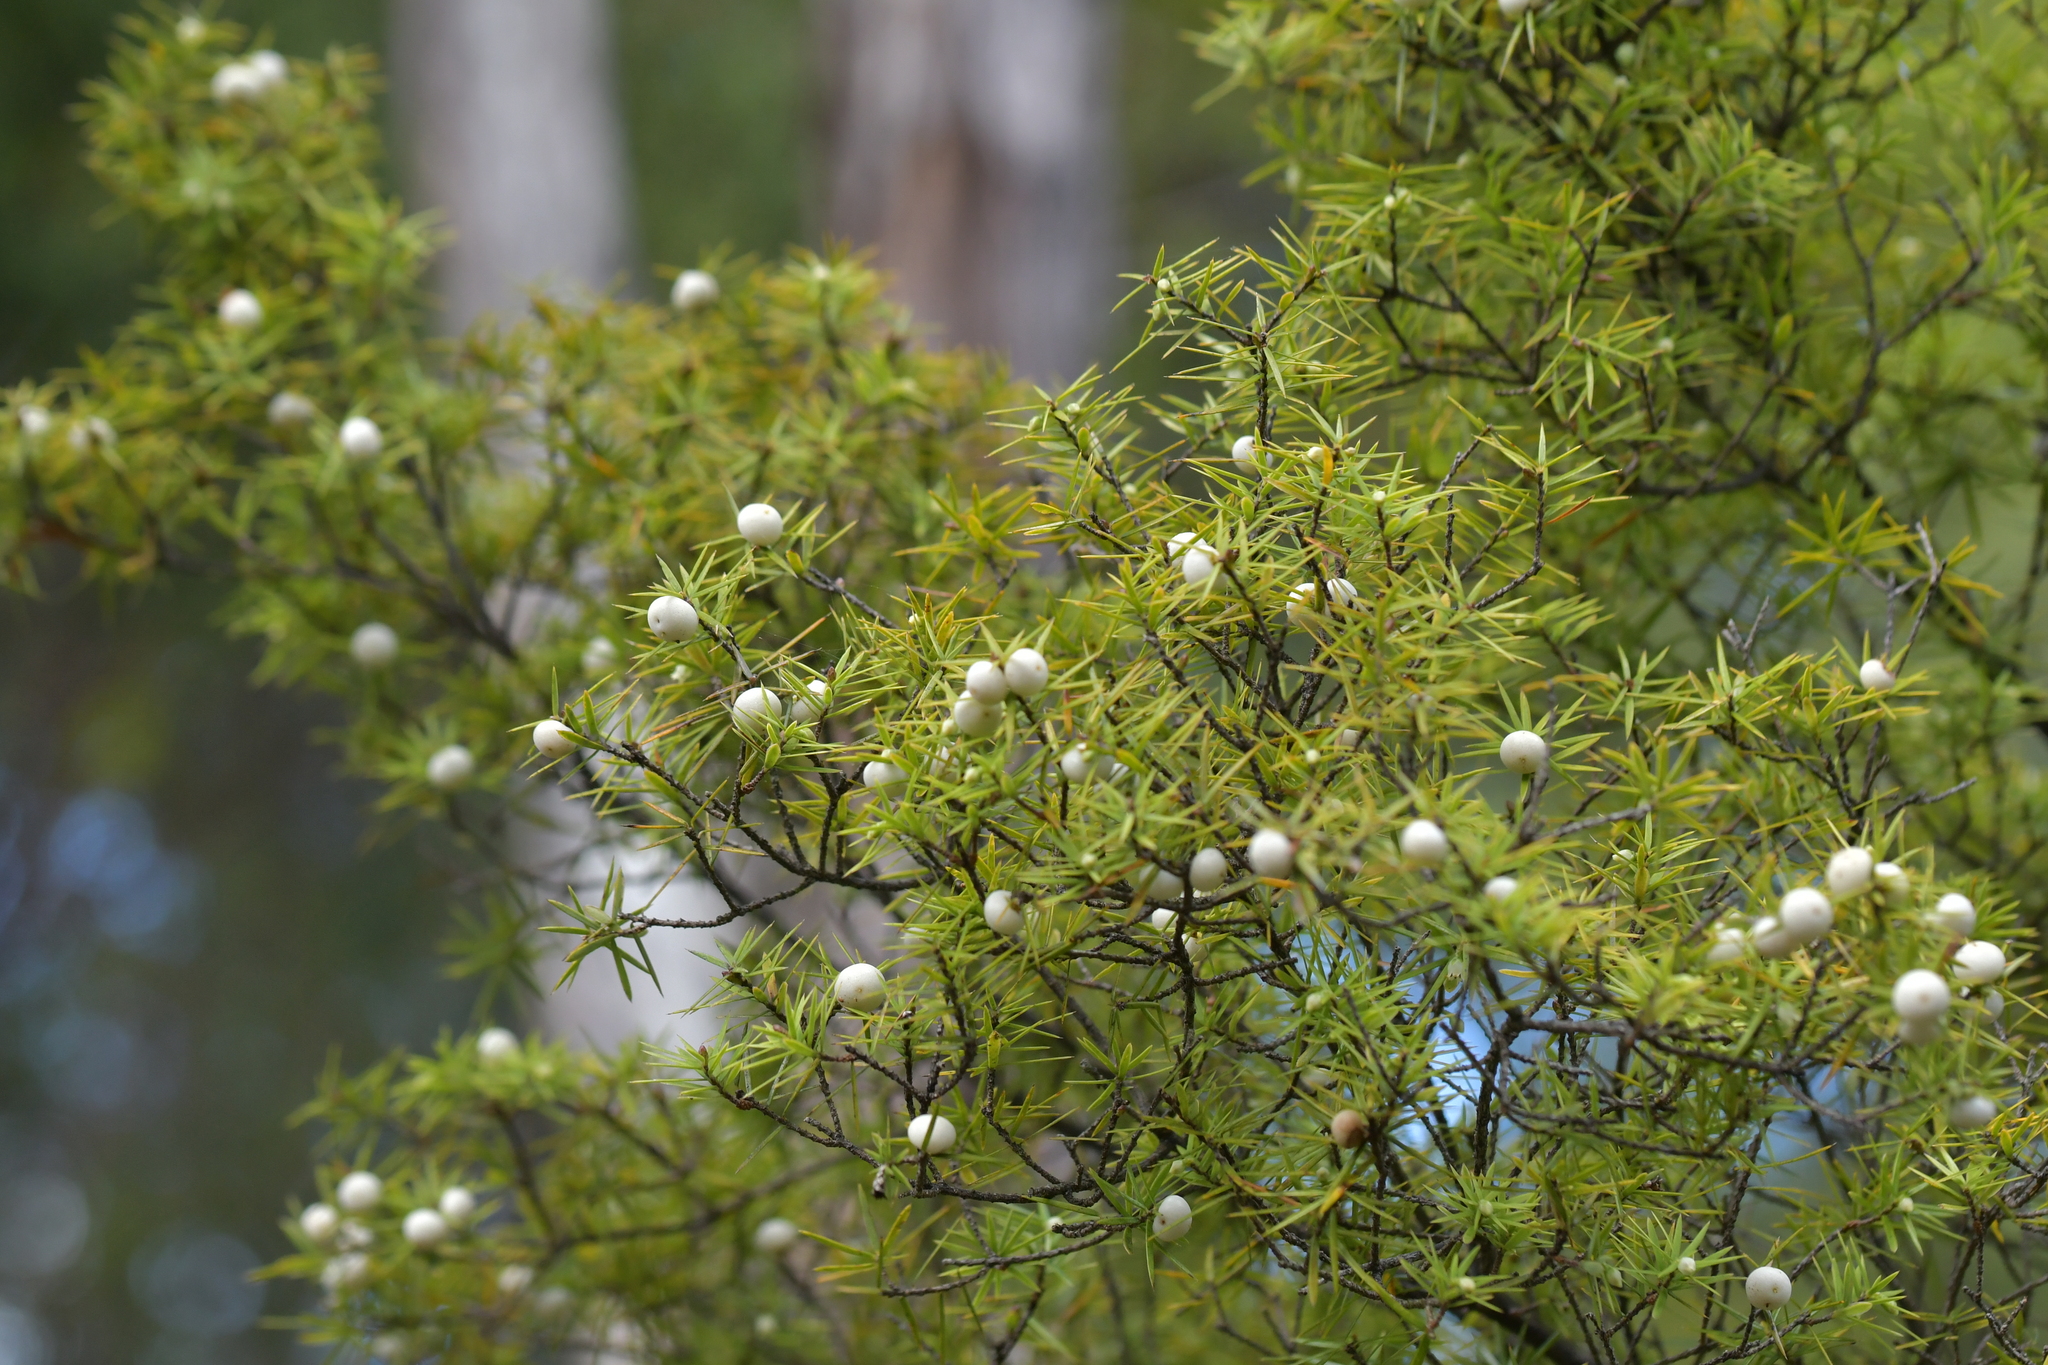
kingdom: Plantae
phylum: Tracheophyta
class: Magnoliopsida
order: Ericales
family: Ericaceae
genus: Leptecophylla
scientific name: Leptecophylla juniperina
